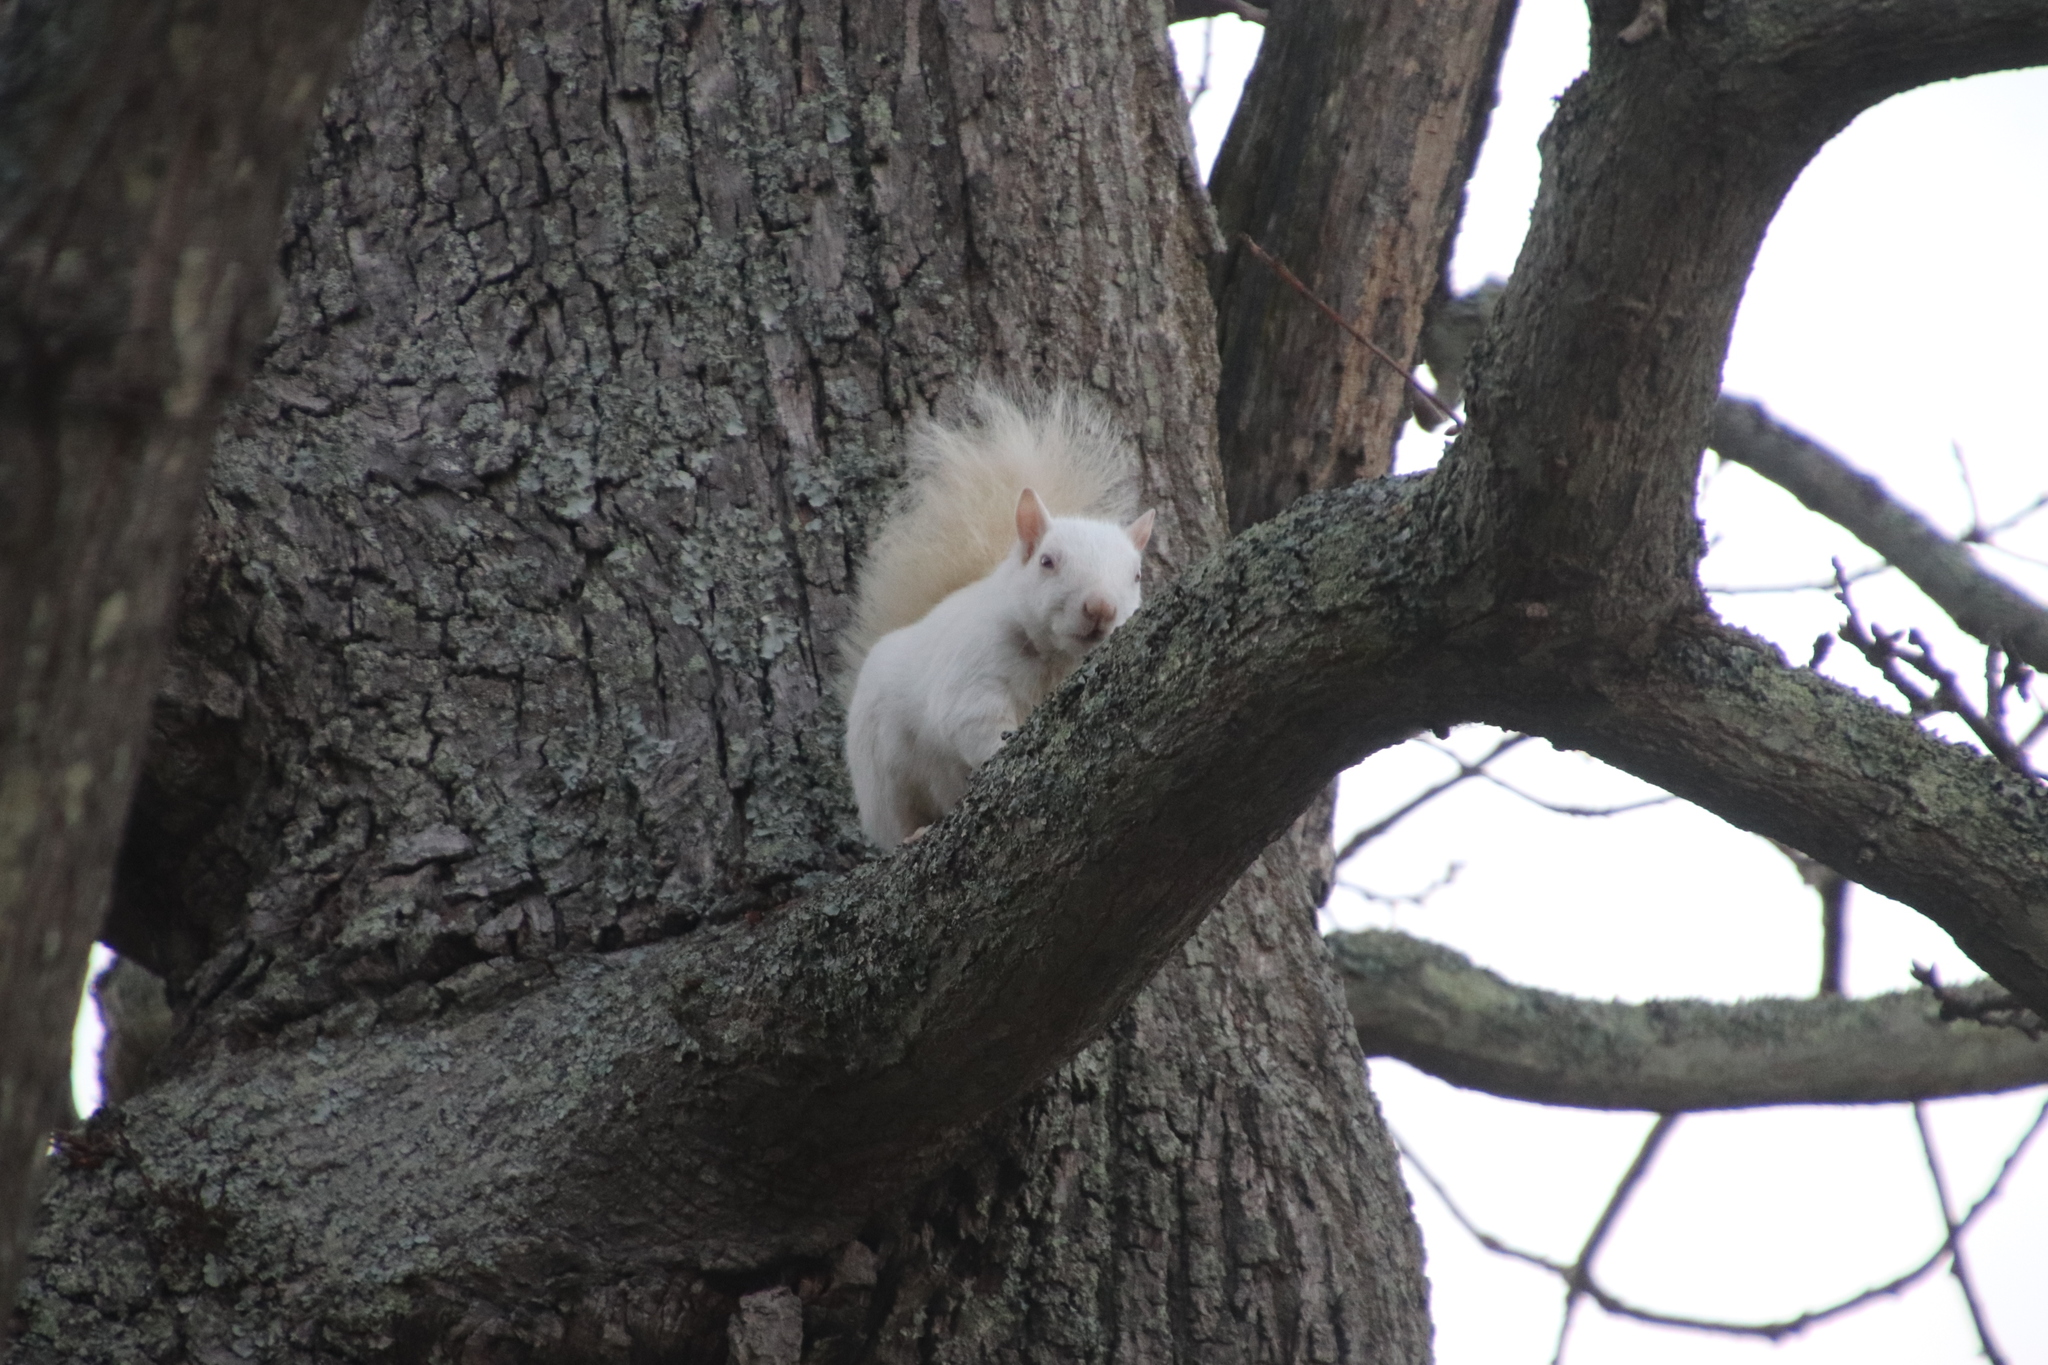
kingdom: Animalia
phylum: Chordata
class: Mammalia
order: Rodentia
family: Sciuridae
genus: Sciurus
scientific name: Sciurus carolinensis
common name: Eastern gray squirrel
